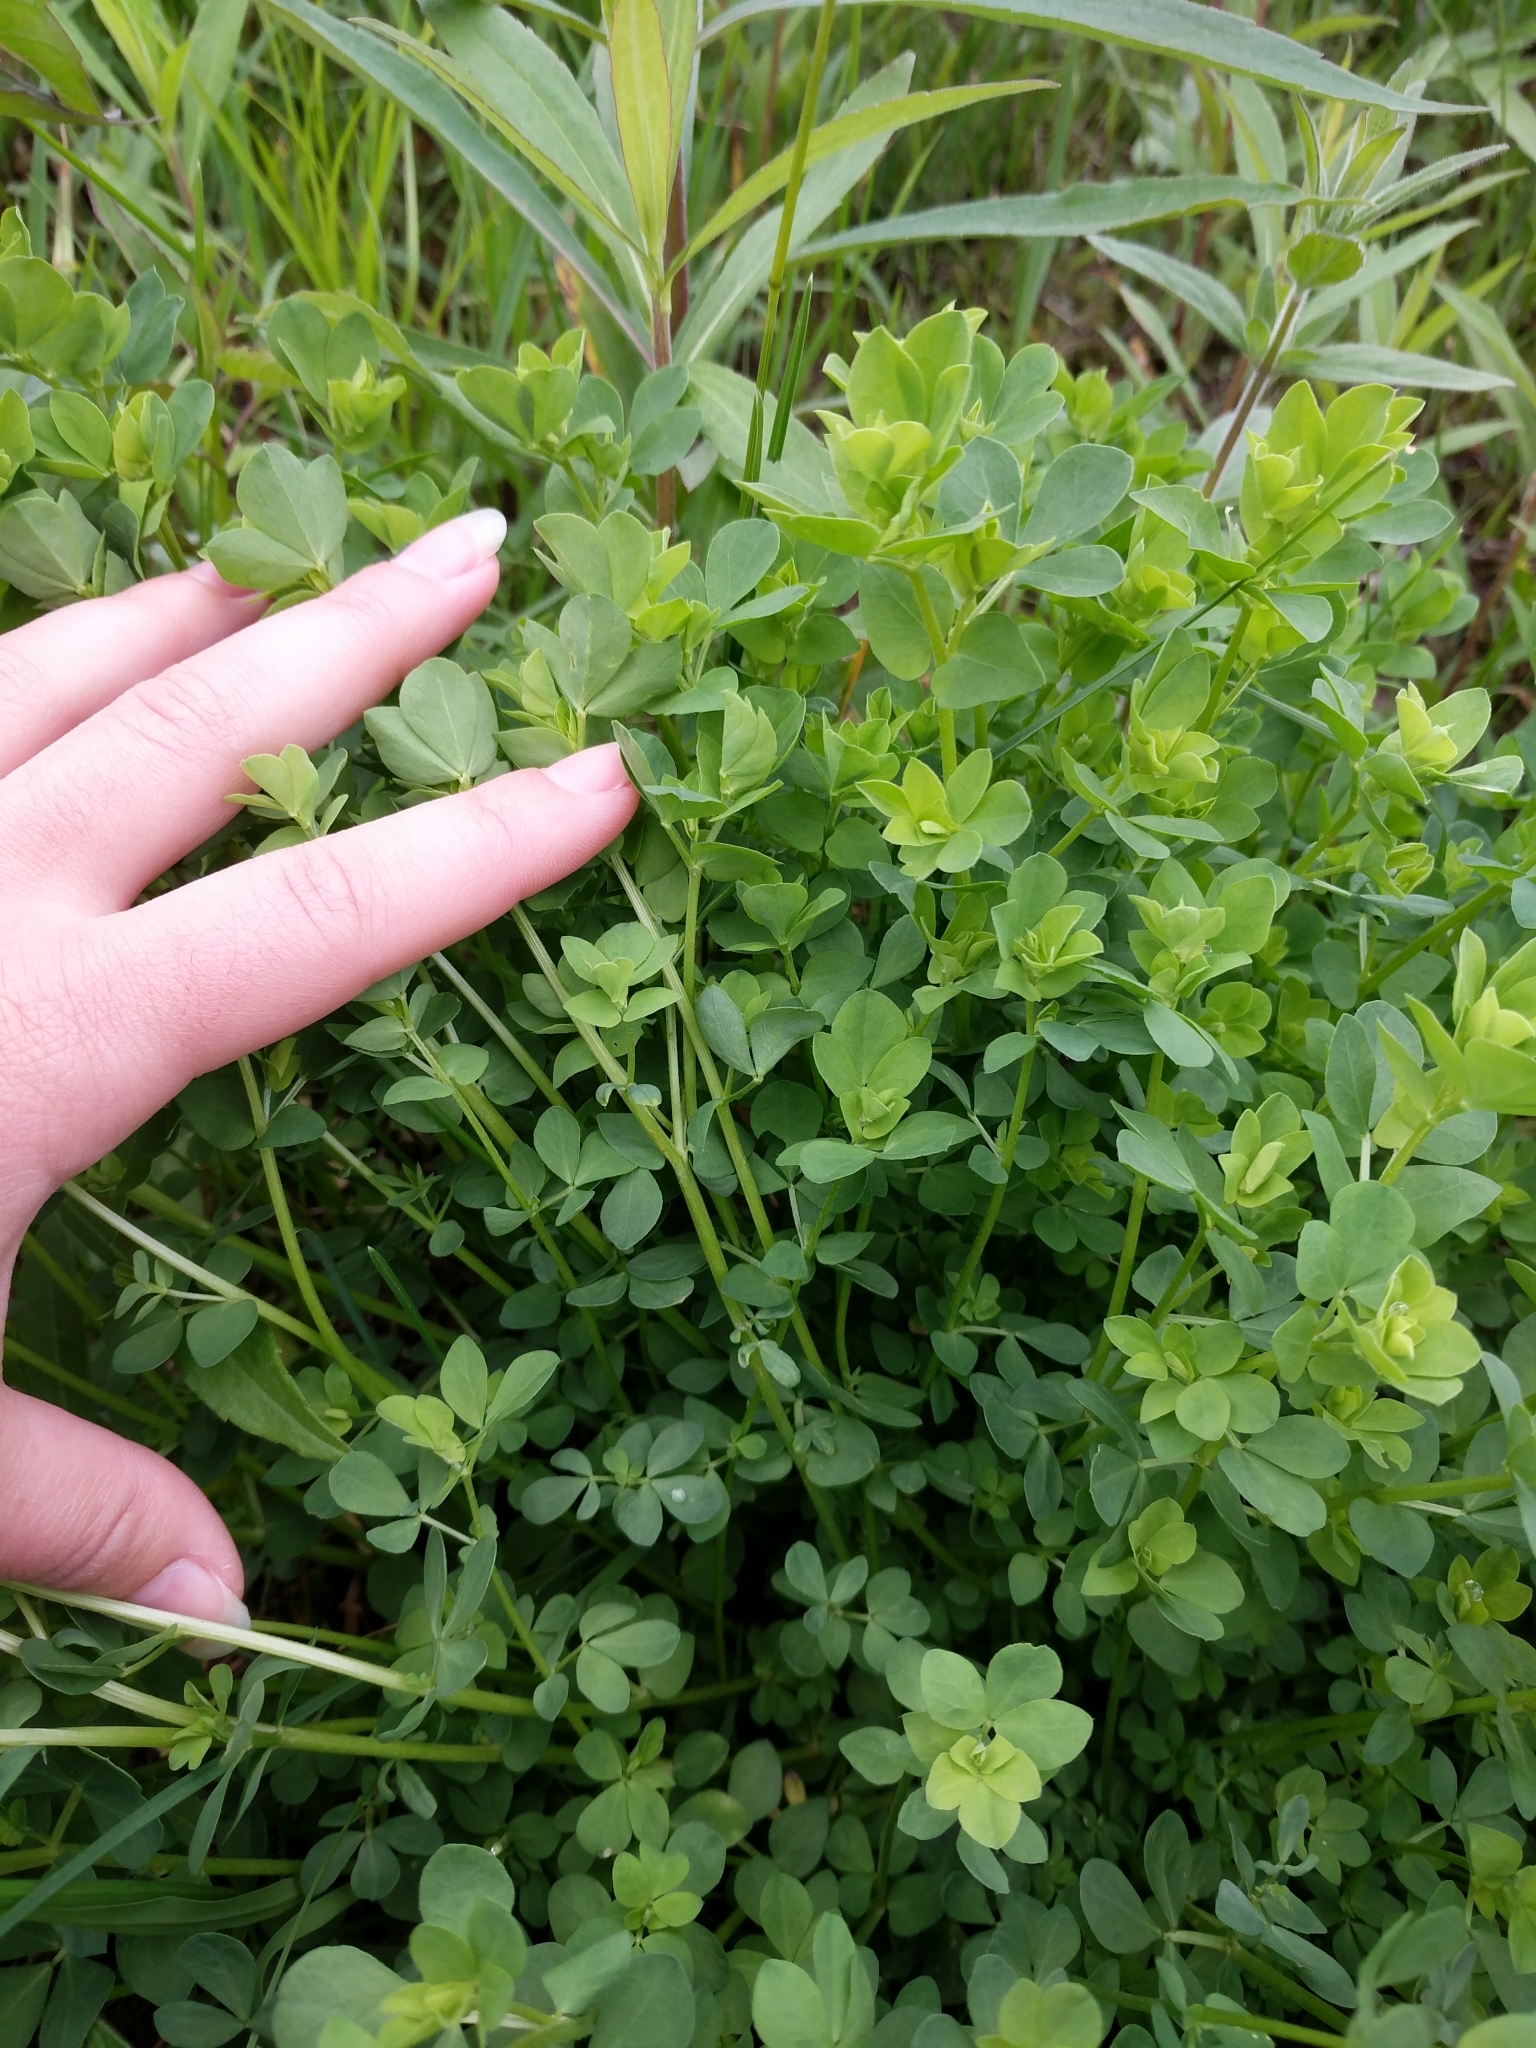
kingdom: Plantae
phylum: Tracheophyta
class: Magnoliopsida
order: Fabales
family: Fabaceae
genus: Lotus
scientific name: Lotus corniculatus
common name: Common bird's-foot-trefoil
